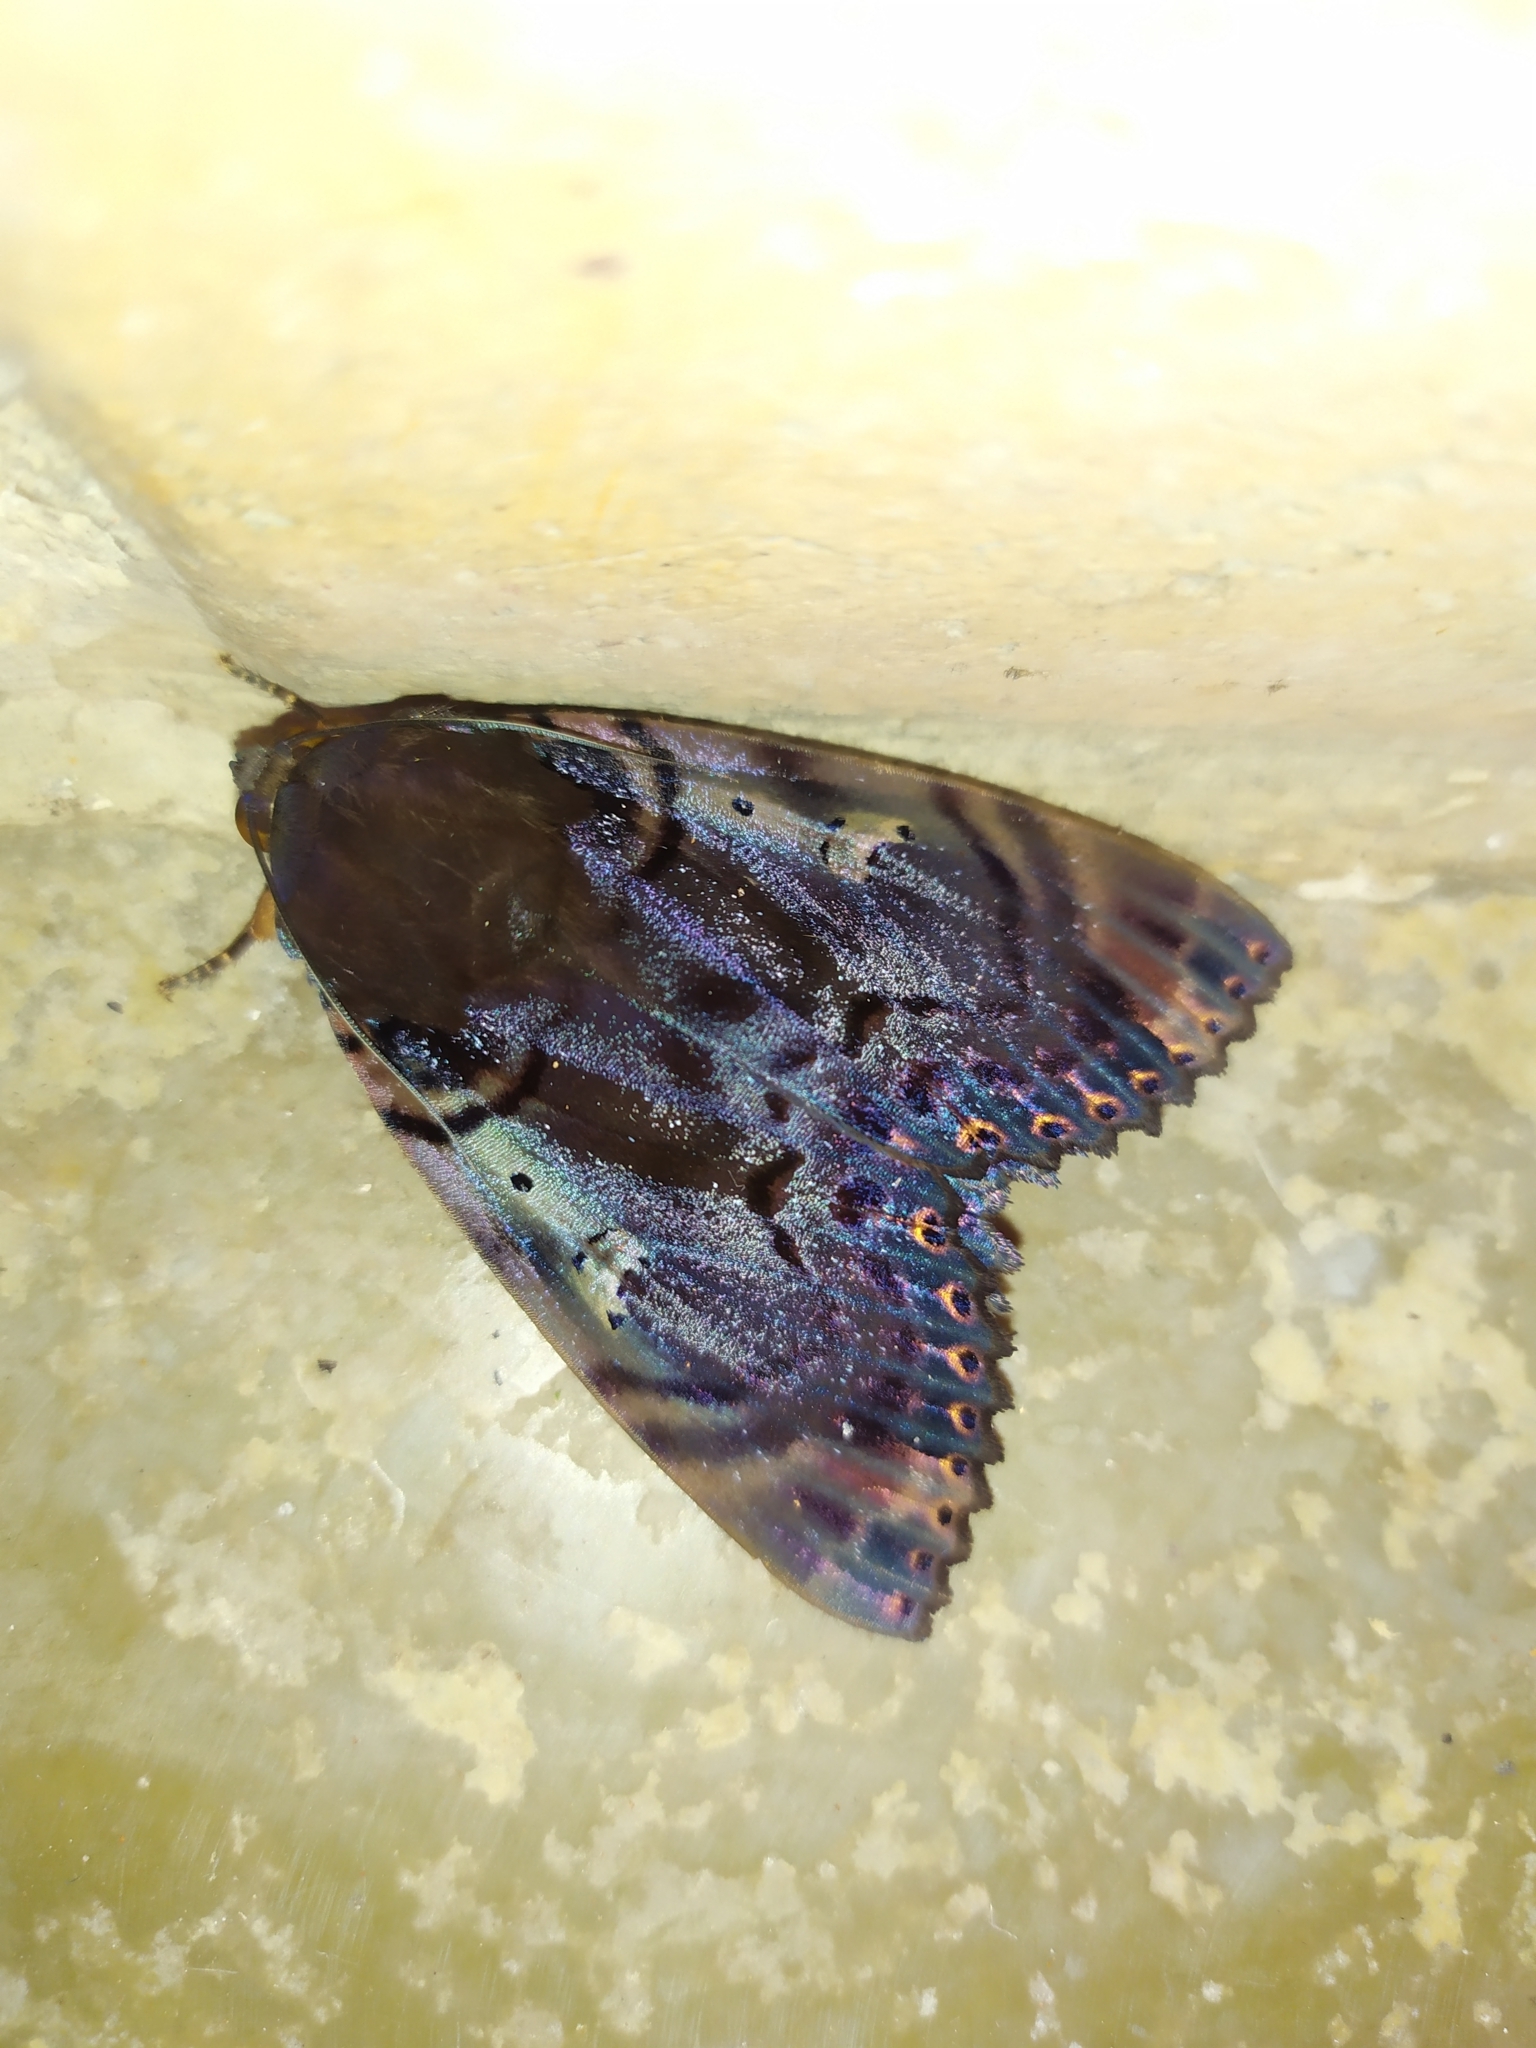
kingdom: Animalia
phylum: Arthropoda
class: Insecta
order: Lepidoptera
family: Erebidae
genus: Arcte
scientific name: Arcte modesta
